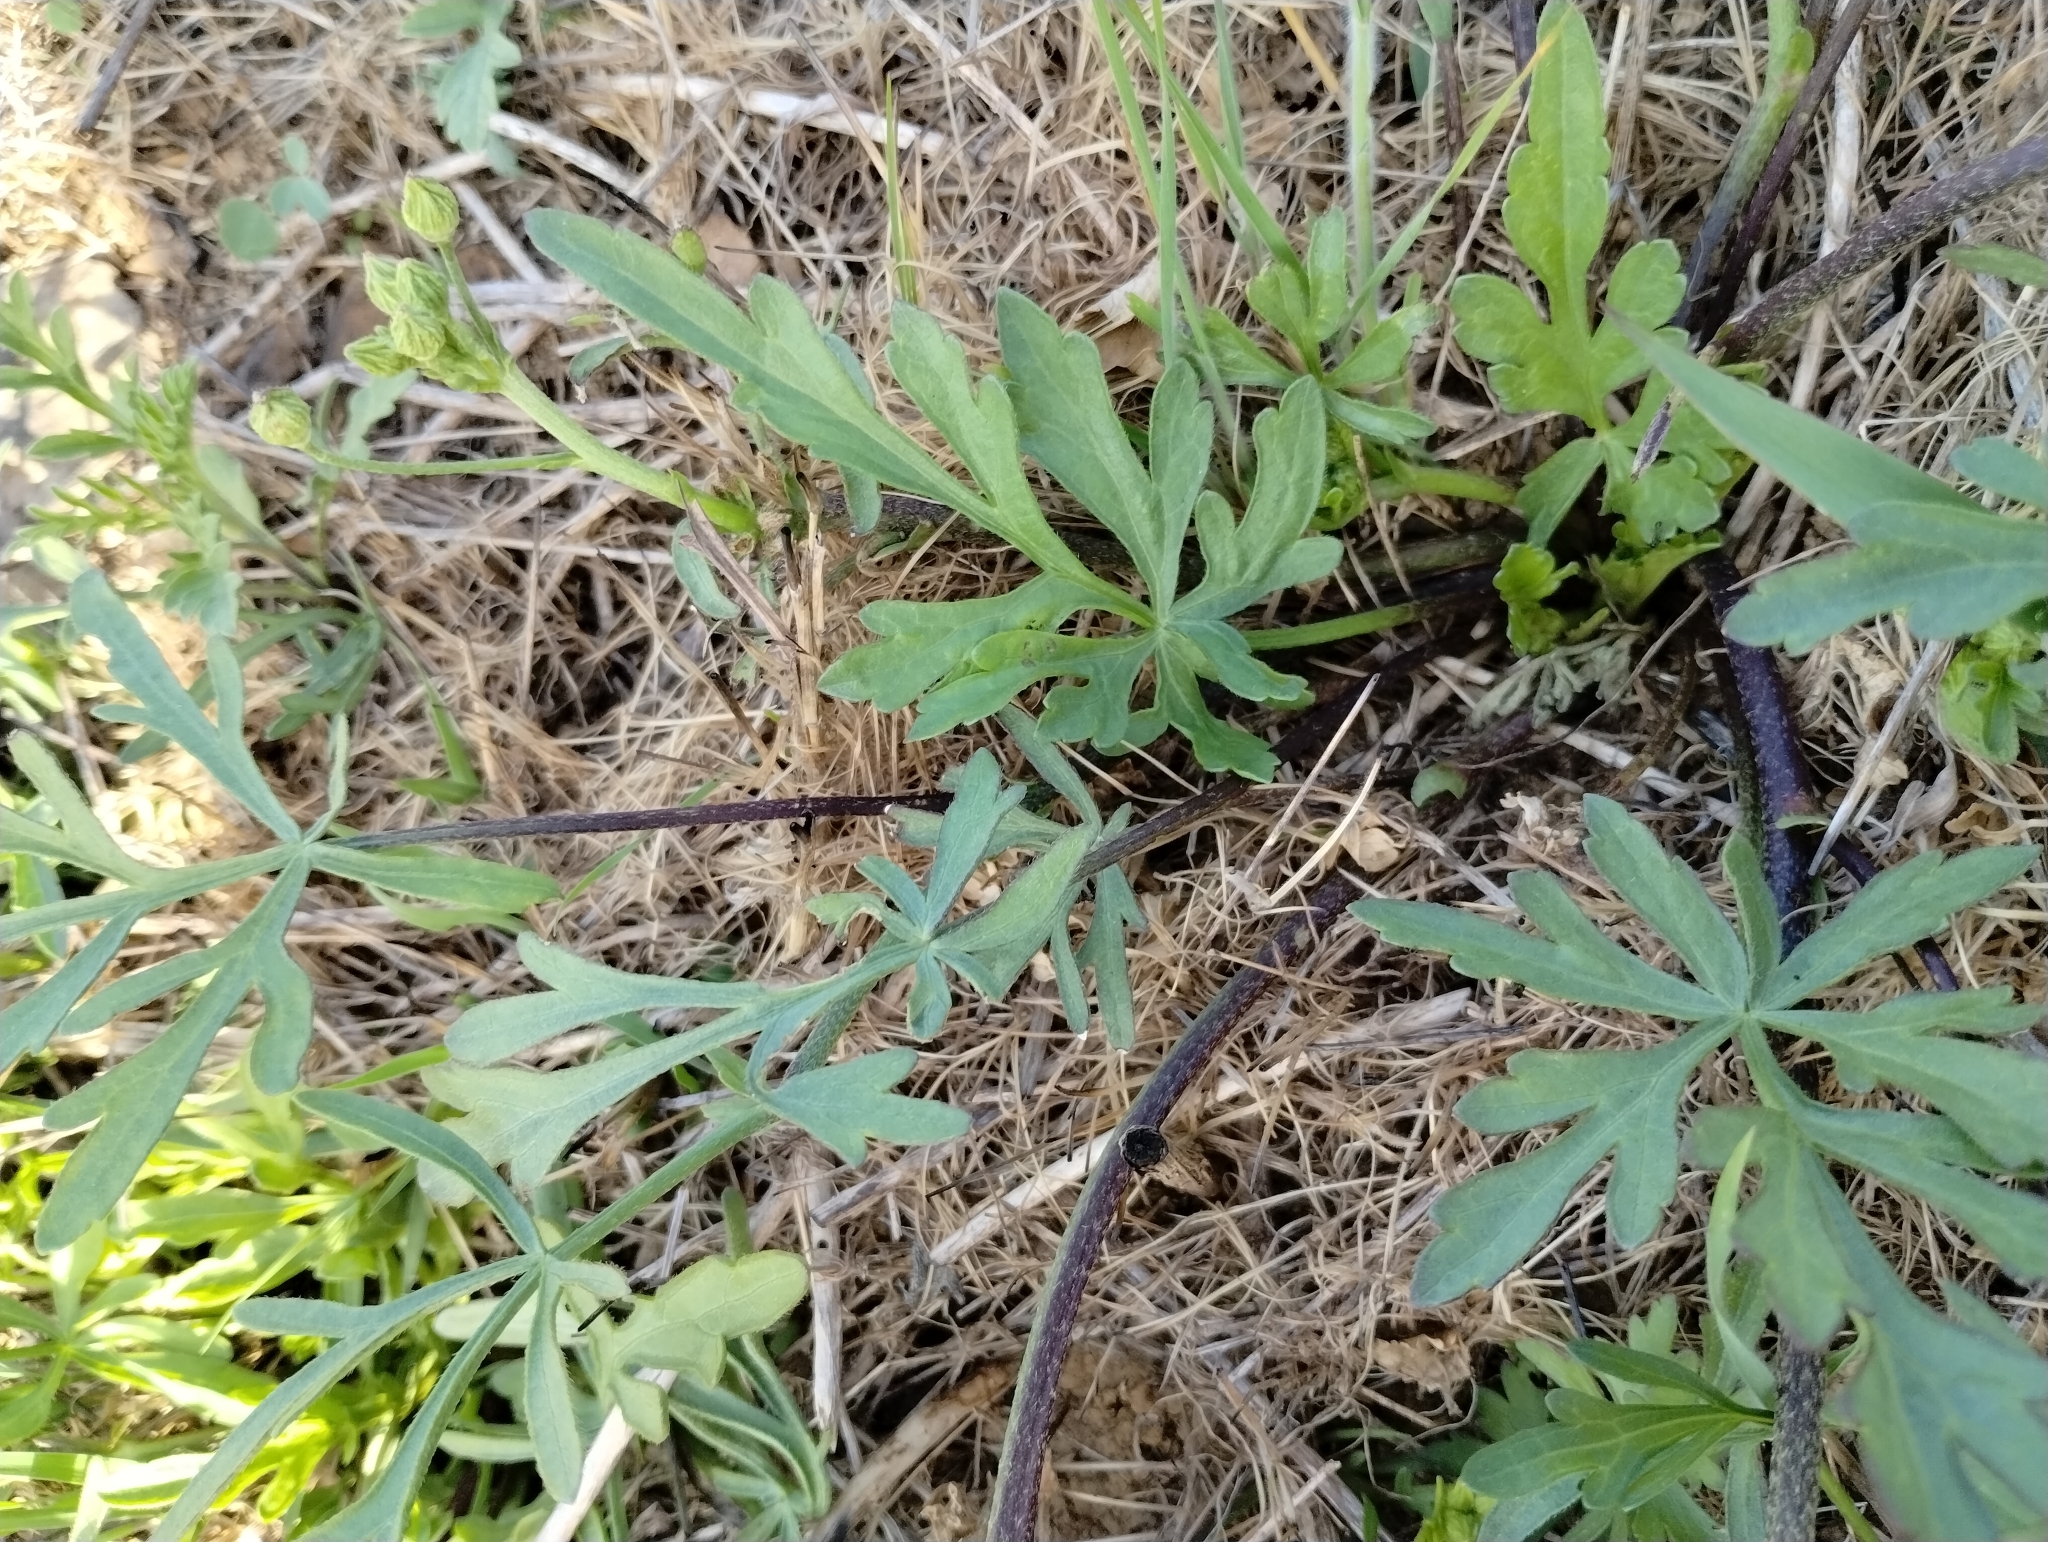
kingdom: Plantae
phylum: Tracheophyta
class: Magnoliopsida
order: Malvales
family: Malvaceae
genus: Callirhoe
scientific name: Callirhoe alcaeoides
